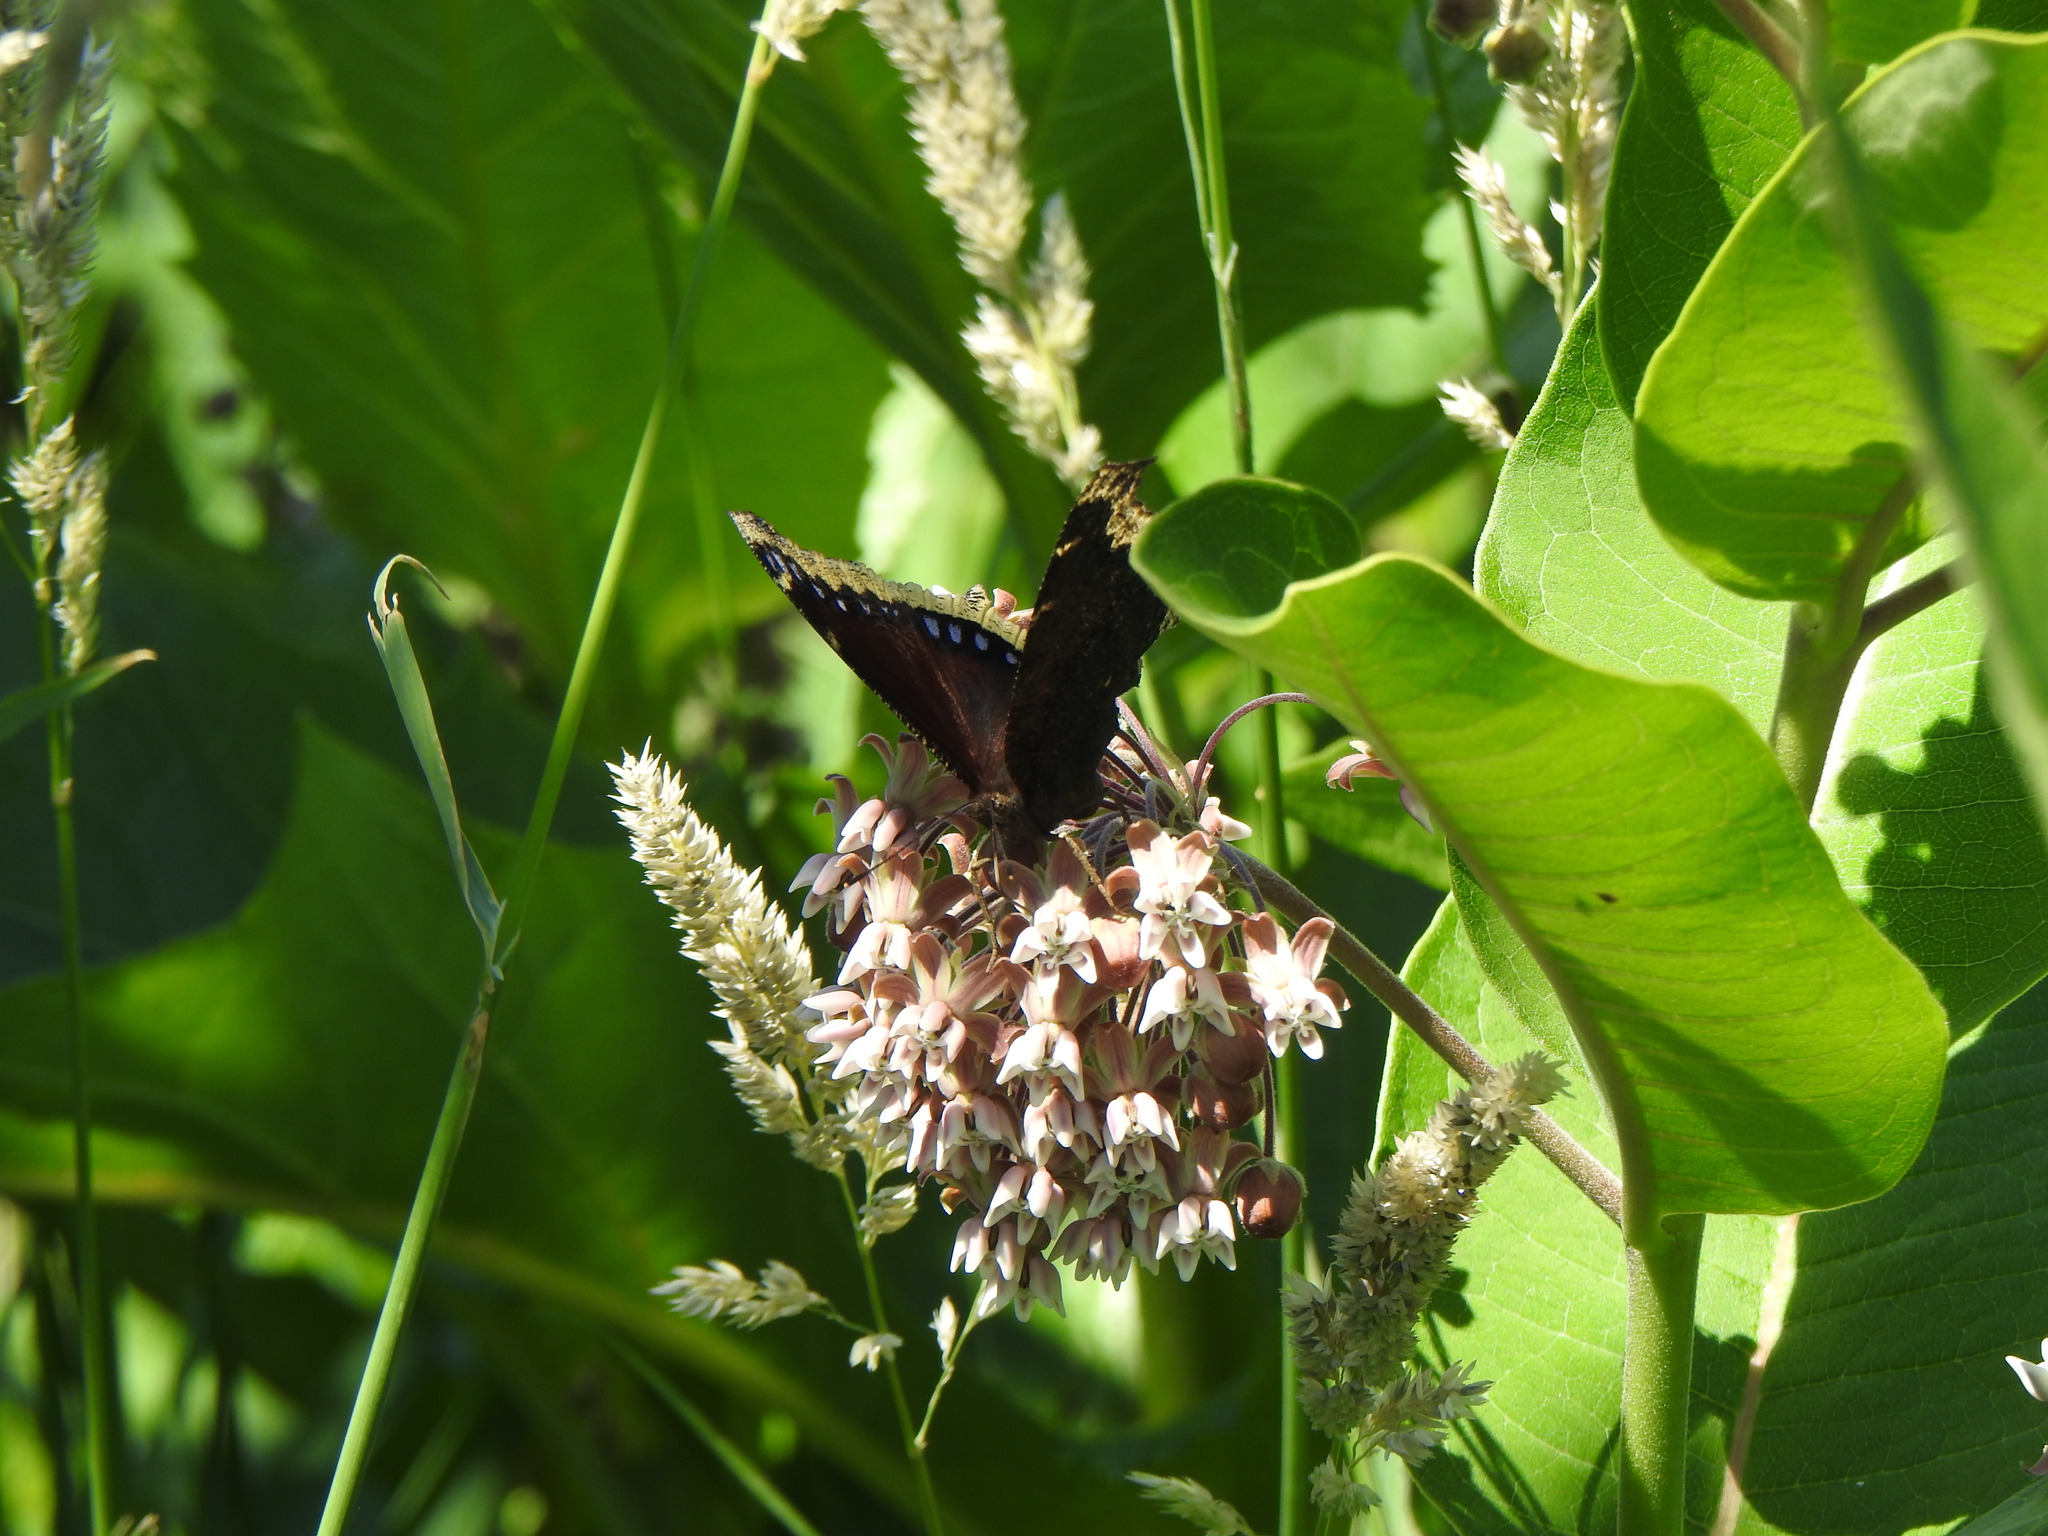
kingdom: Animalia
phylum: Arthropoda
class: Insecta
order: Lepidoptera
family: Nymphalidae
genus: Nymphalis
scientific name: Nymphalis antiopa
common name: Camberwell beauty
